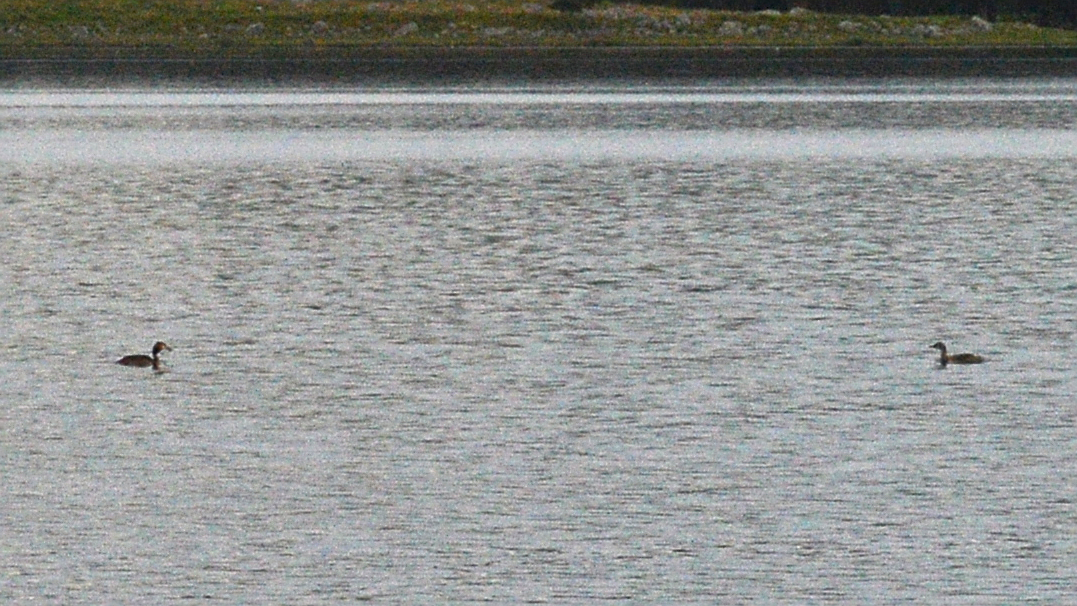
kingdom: Animalia
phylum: Chordata
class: Aves
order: Podicipediformes
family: Podicipedidae
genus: Podiceps
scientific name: Podiceps cristatus
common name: Great crested grebe
